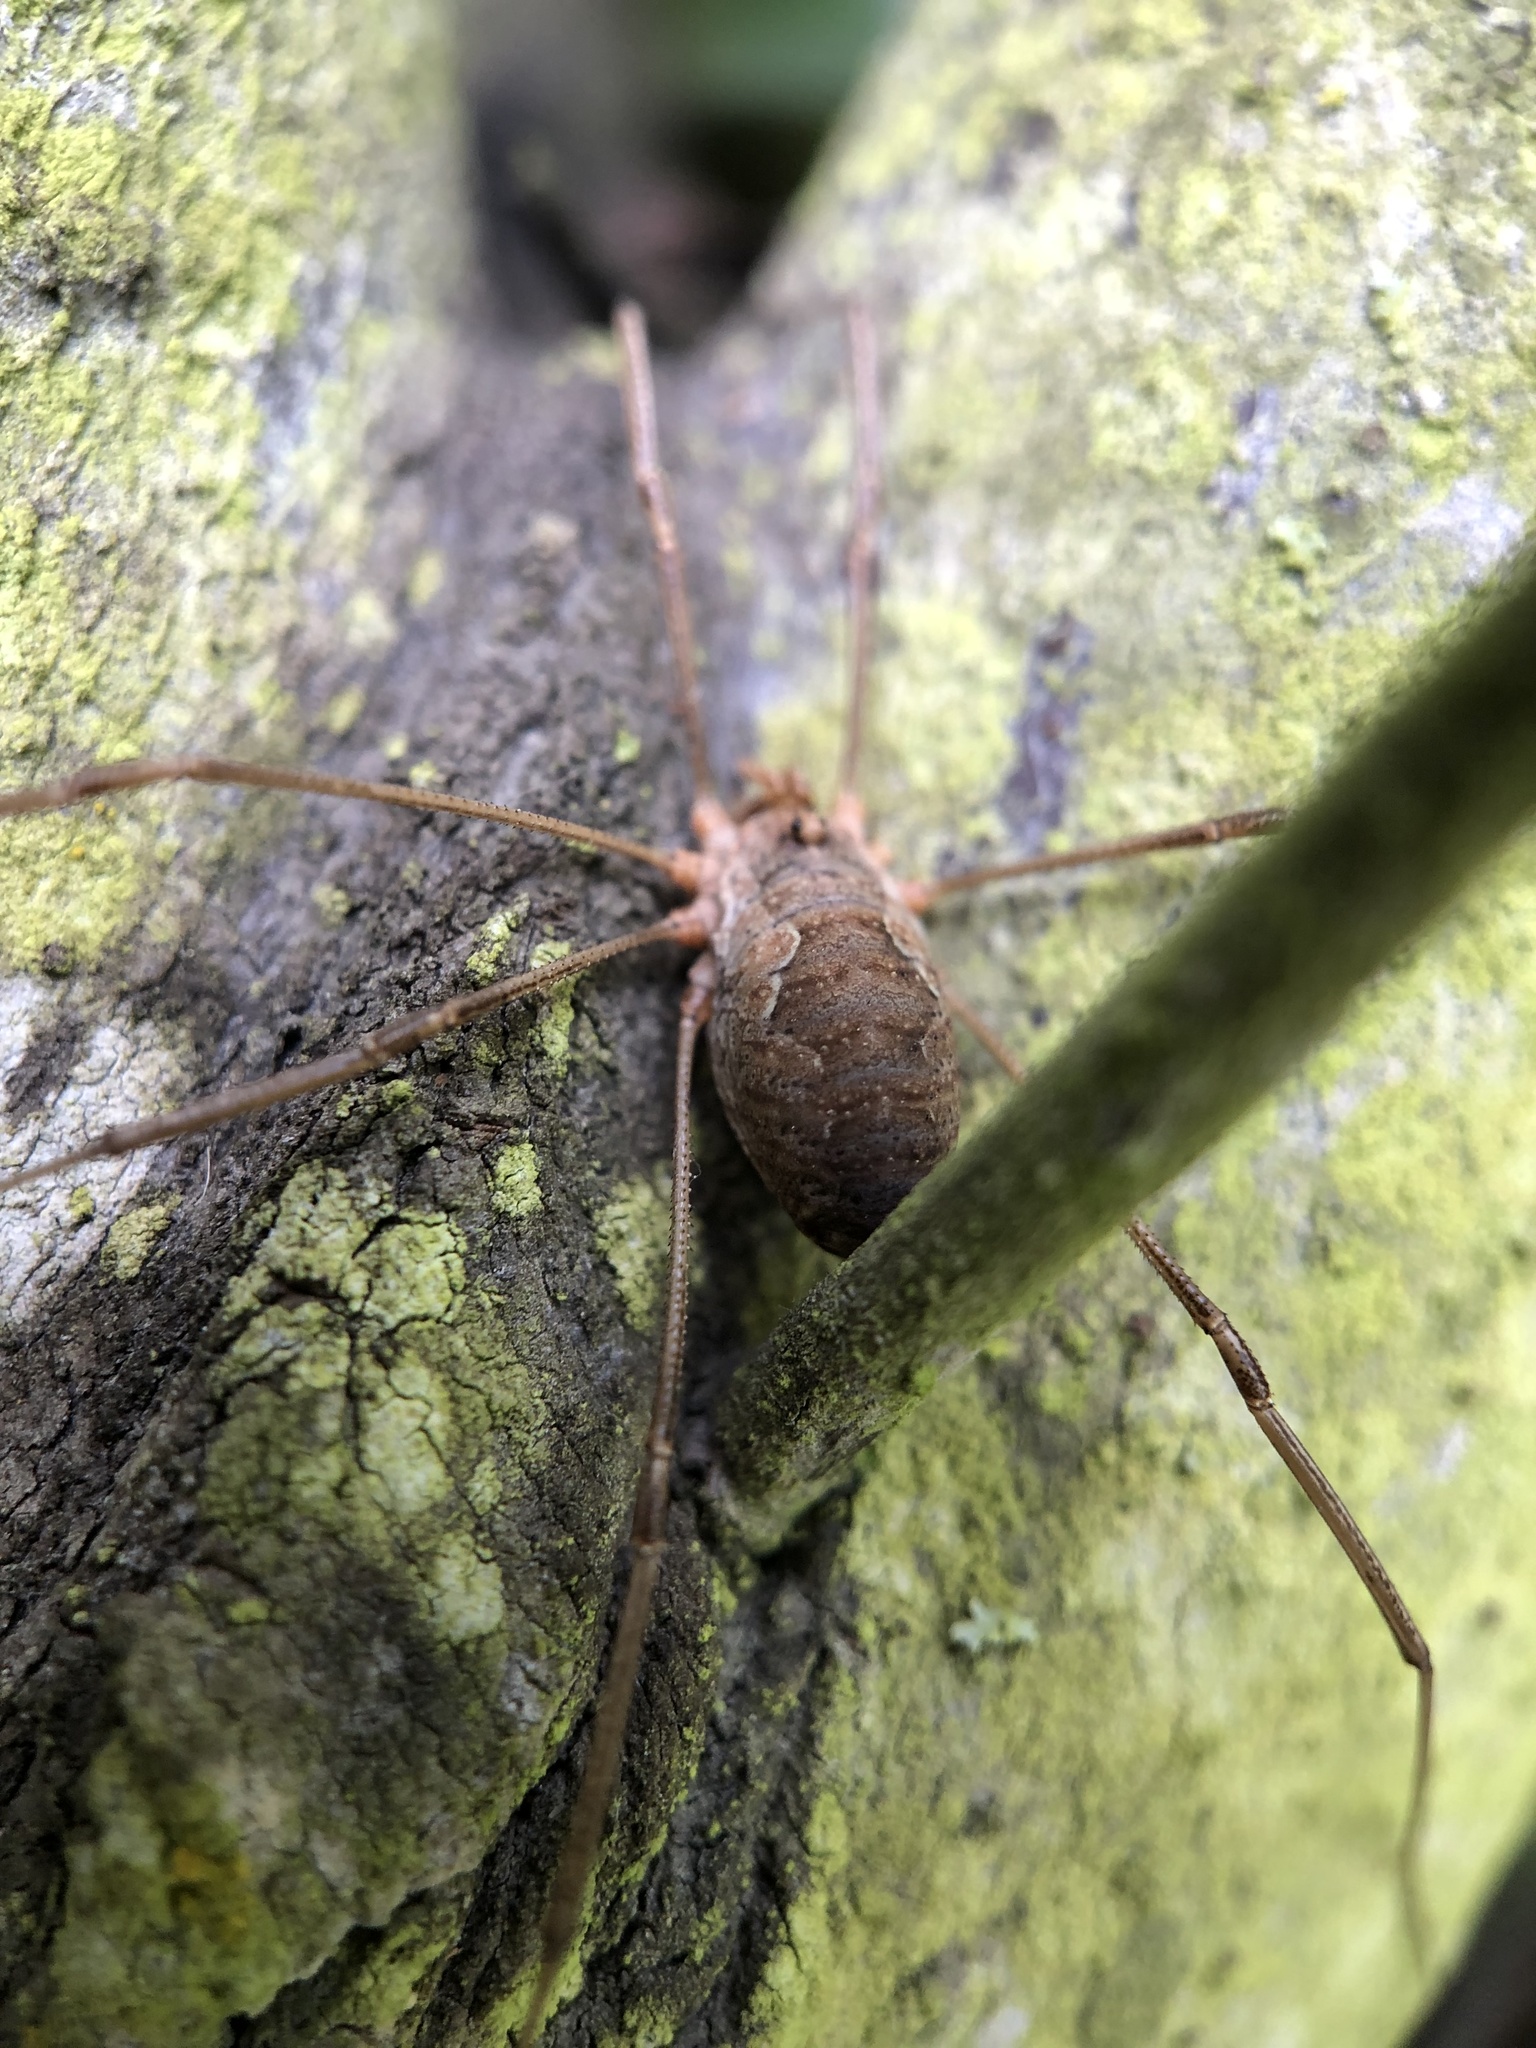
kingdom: Animalia
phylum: Arthropoda
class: Arachnida
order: Opiliones
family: Phalangiidae
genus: Phalangium
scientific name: Phalangium opilio
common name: Daddy longleg
